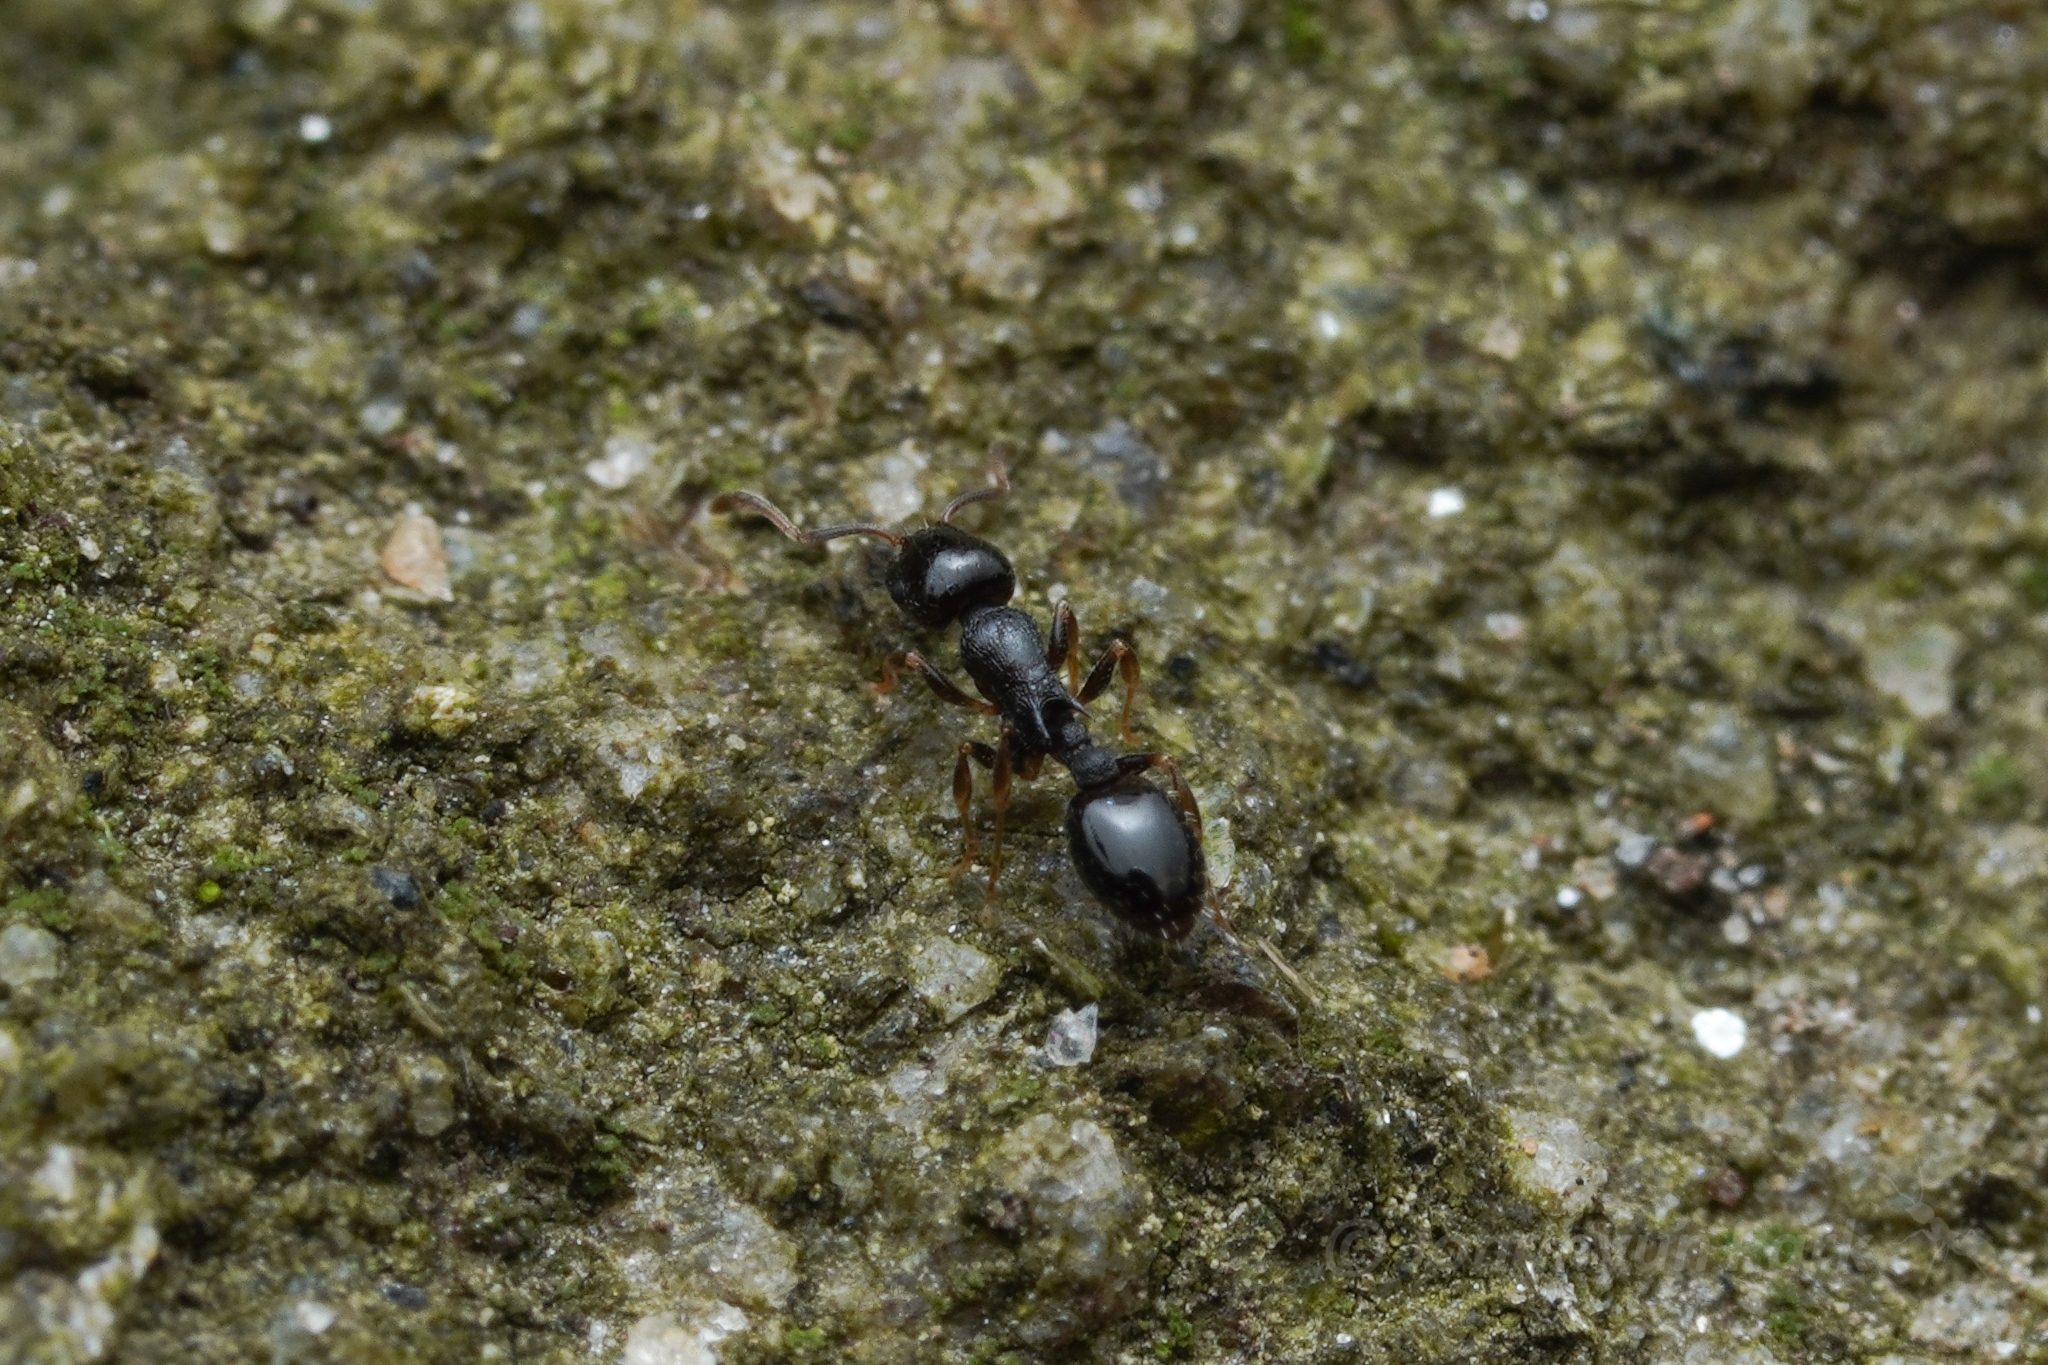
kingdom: Animalia
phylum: Arthropoda
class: Insecta
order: Hymenoptera
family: Formicidae
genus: Temnothorax
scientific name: Temnothorax longispinosus
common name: Long-spined acorn ant
